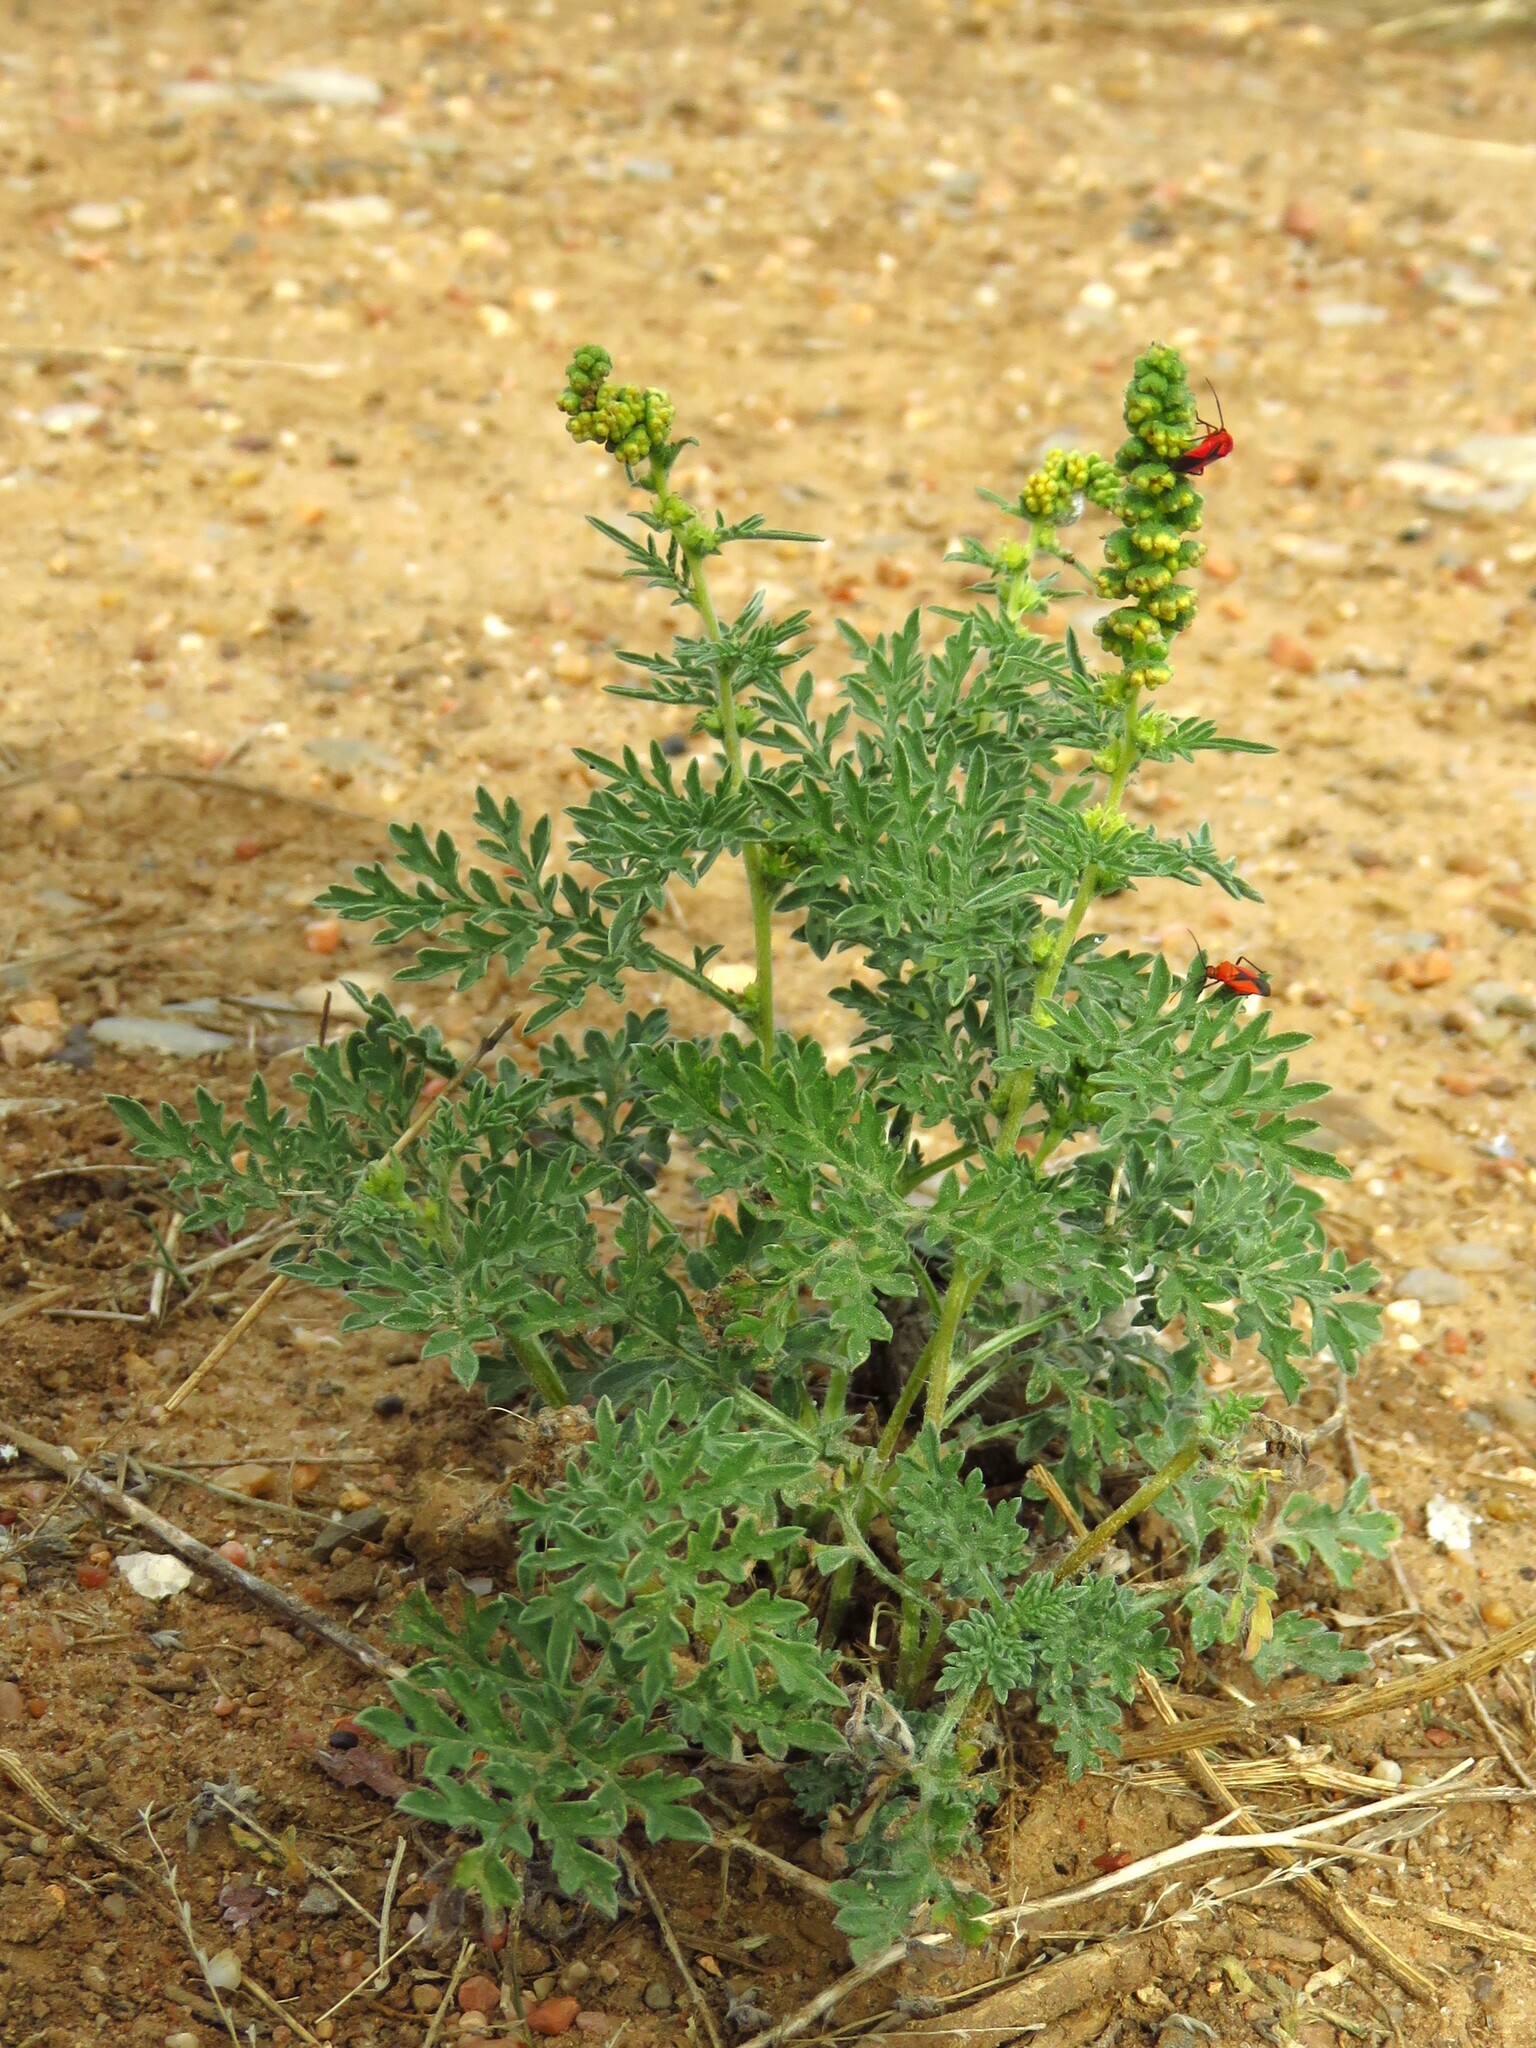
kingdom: Plantae
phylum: Tracheophyta
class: Magnoliopsida
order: Asterales
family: Asteraceae
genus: Ambrosia
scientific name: Ambrosia artemisiifolia
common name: Annual ragweed
